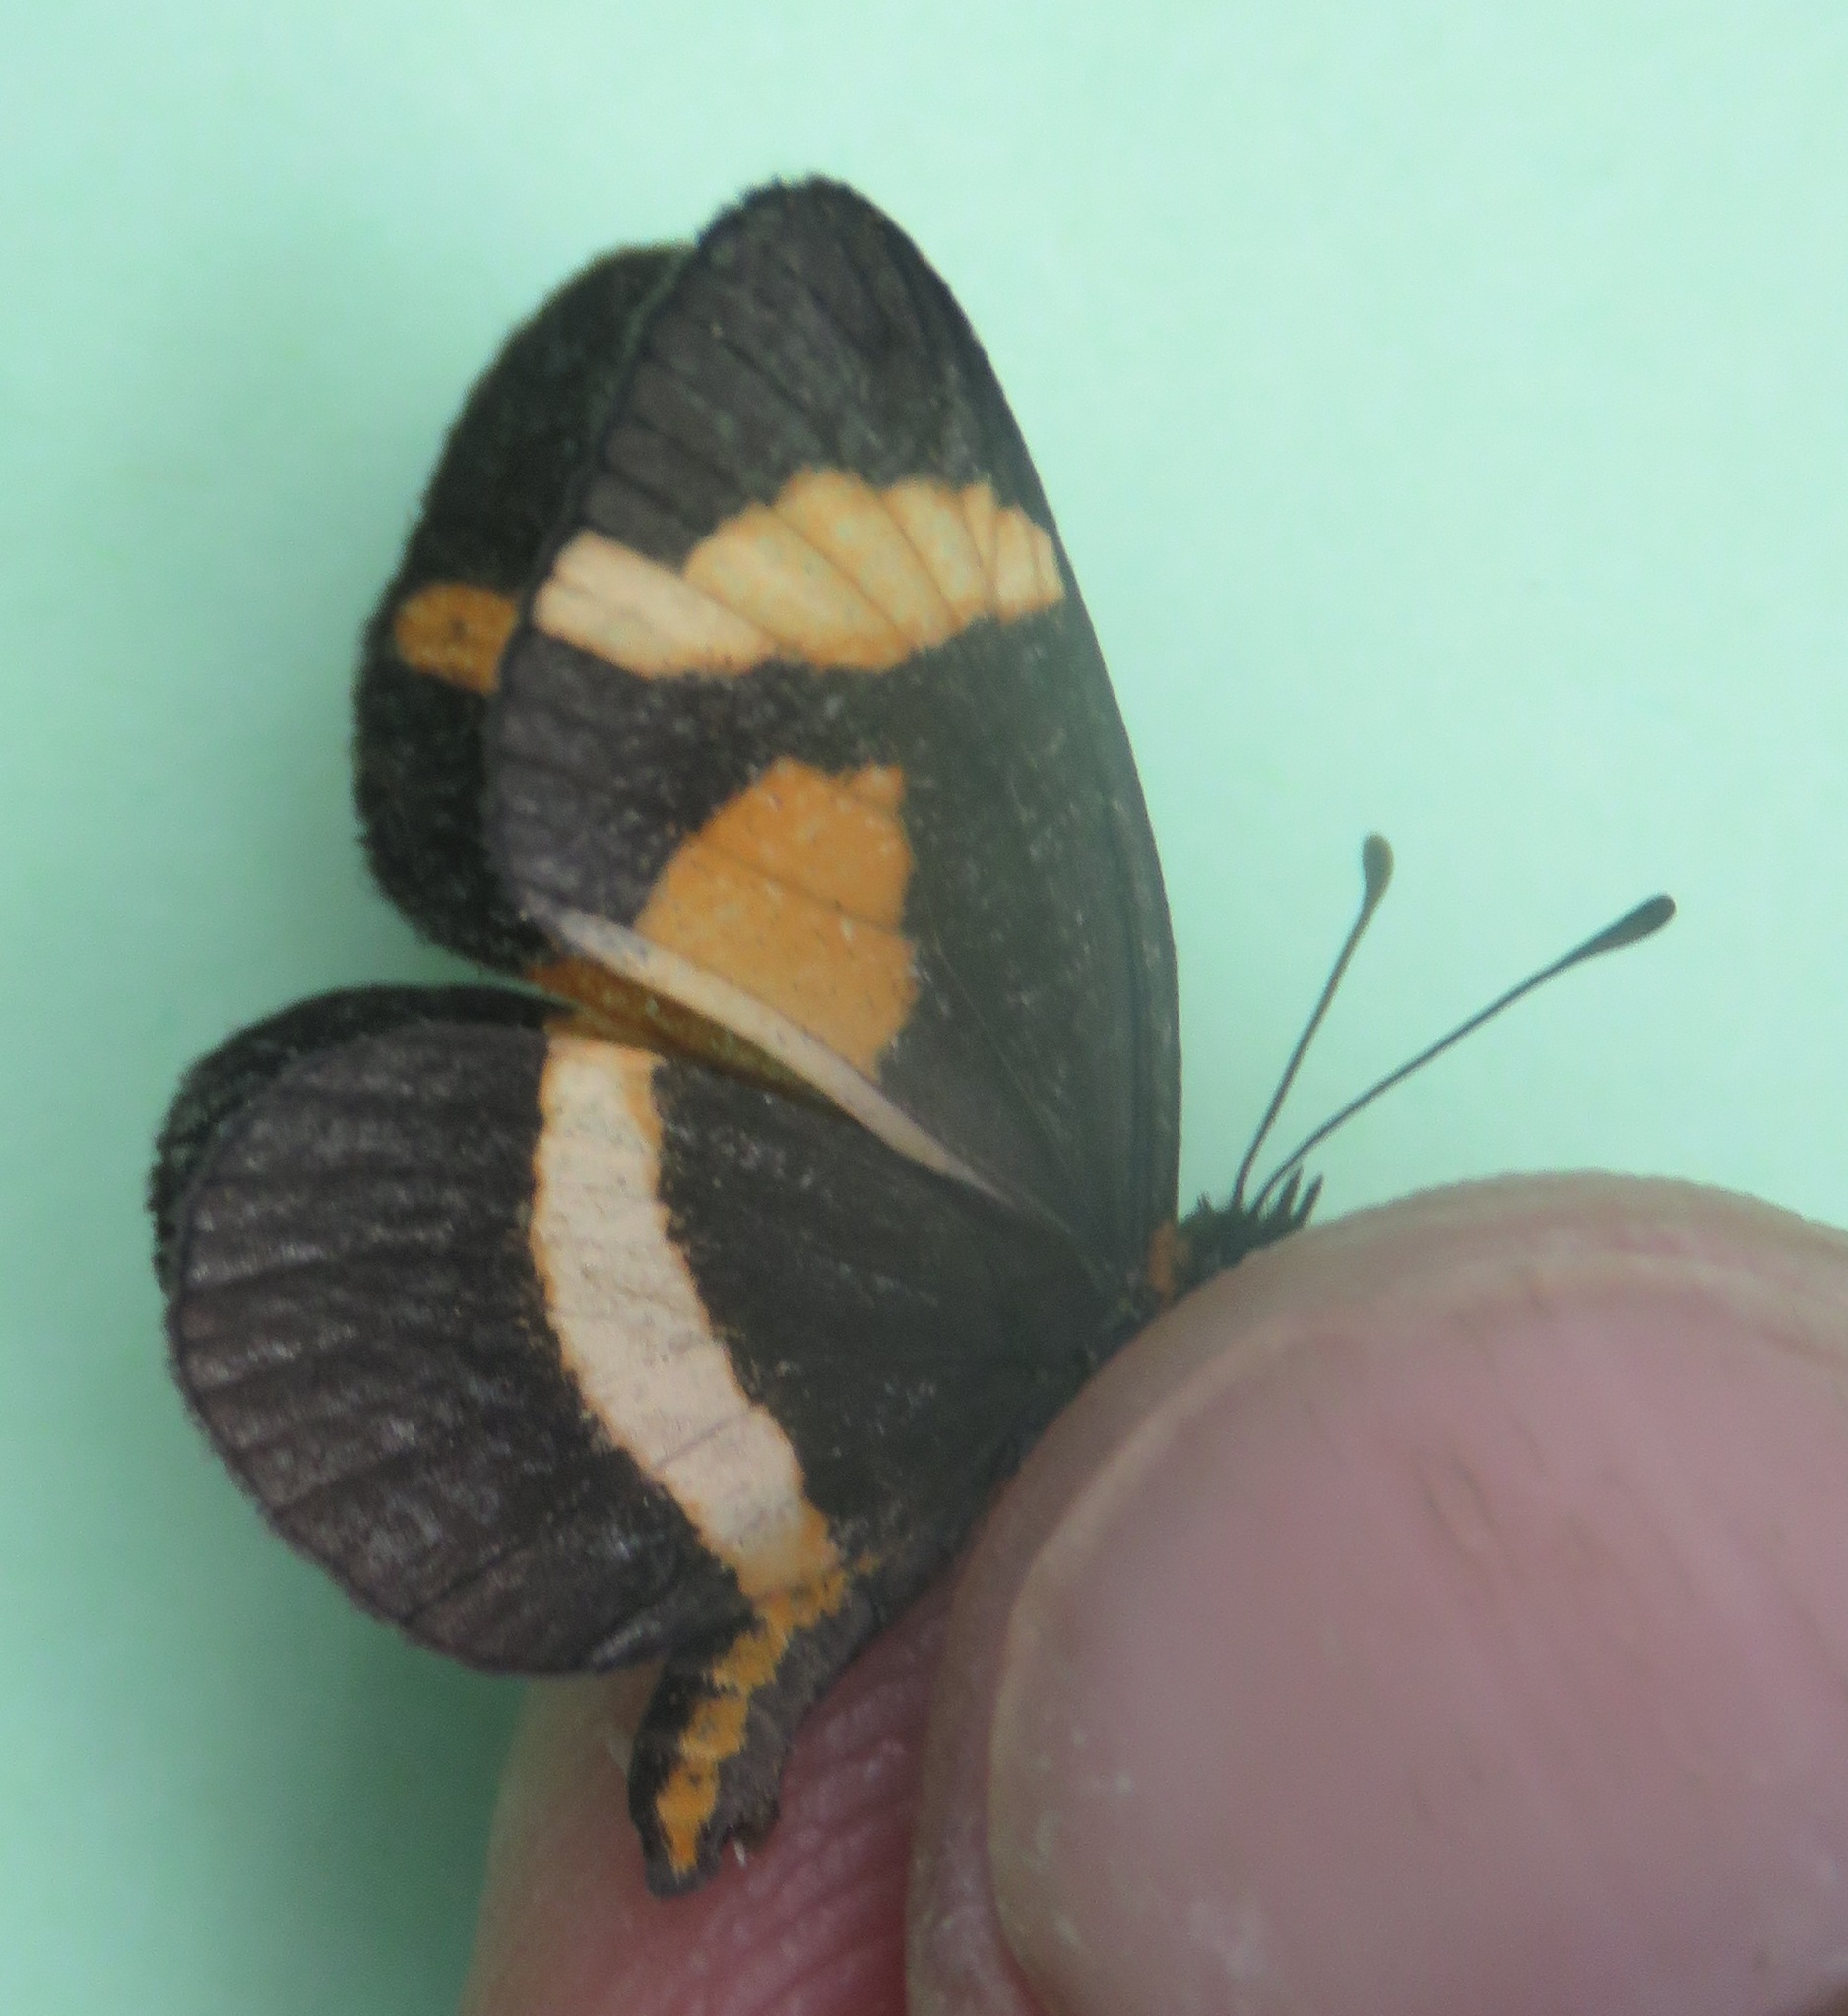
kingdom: Animalia
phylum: Arthropoda
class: Insecta
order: Lepidoptera
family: Nymphalidae
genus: Microtia
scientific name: Microtia elva
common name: Elf
